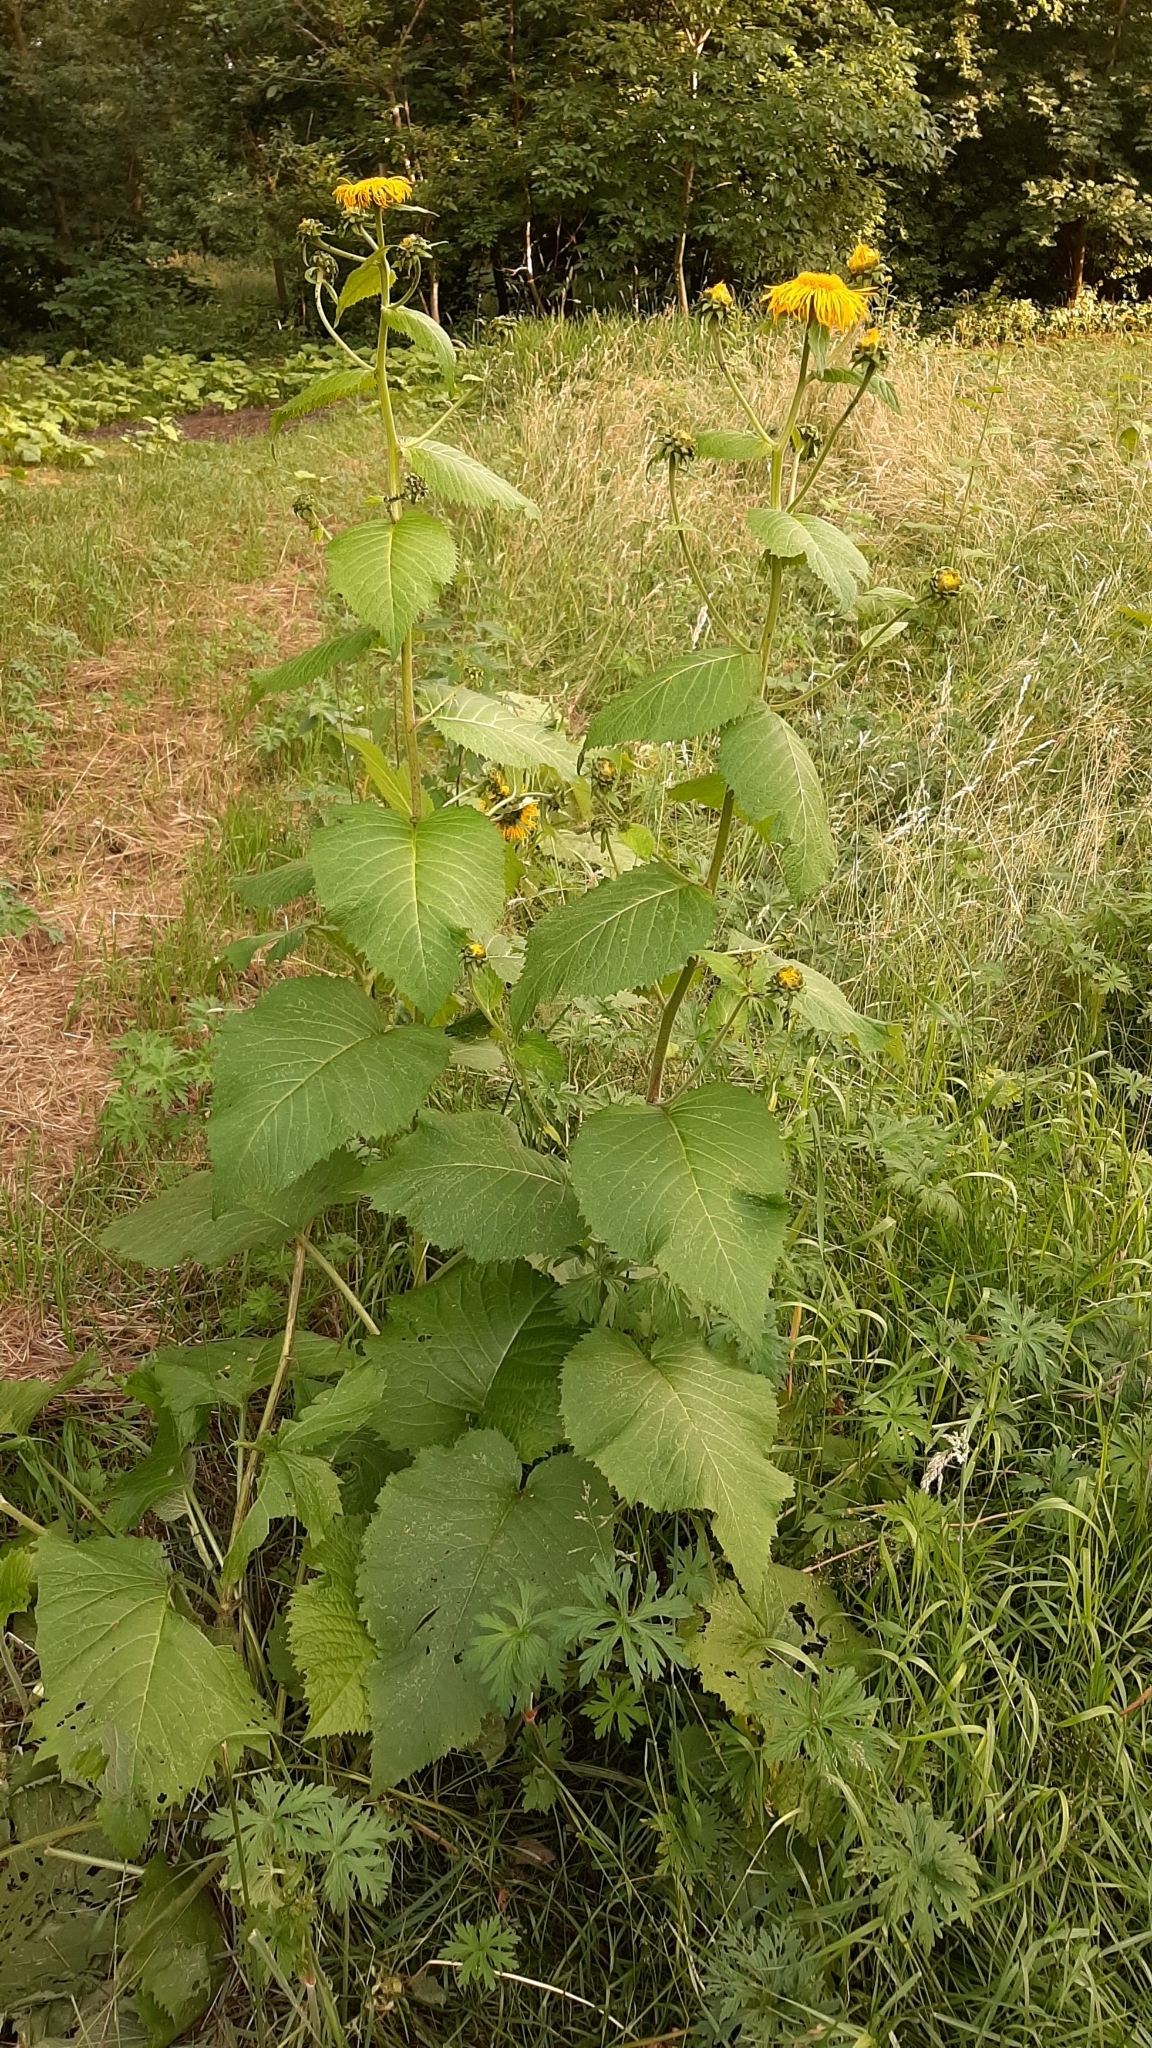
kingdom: Plantae
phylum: Tracheophyta
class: Magnoliopsida
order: Asterales
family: Asteraceae
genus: Telekia
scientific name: Telekia speciosa
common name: Yellow oxeye
